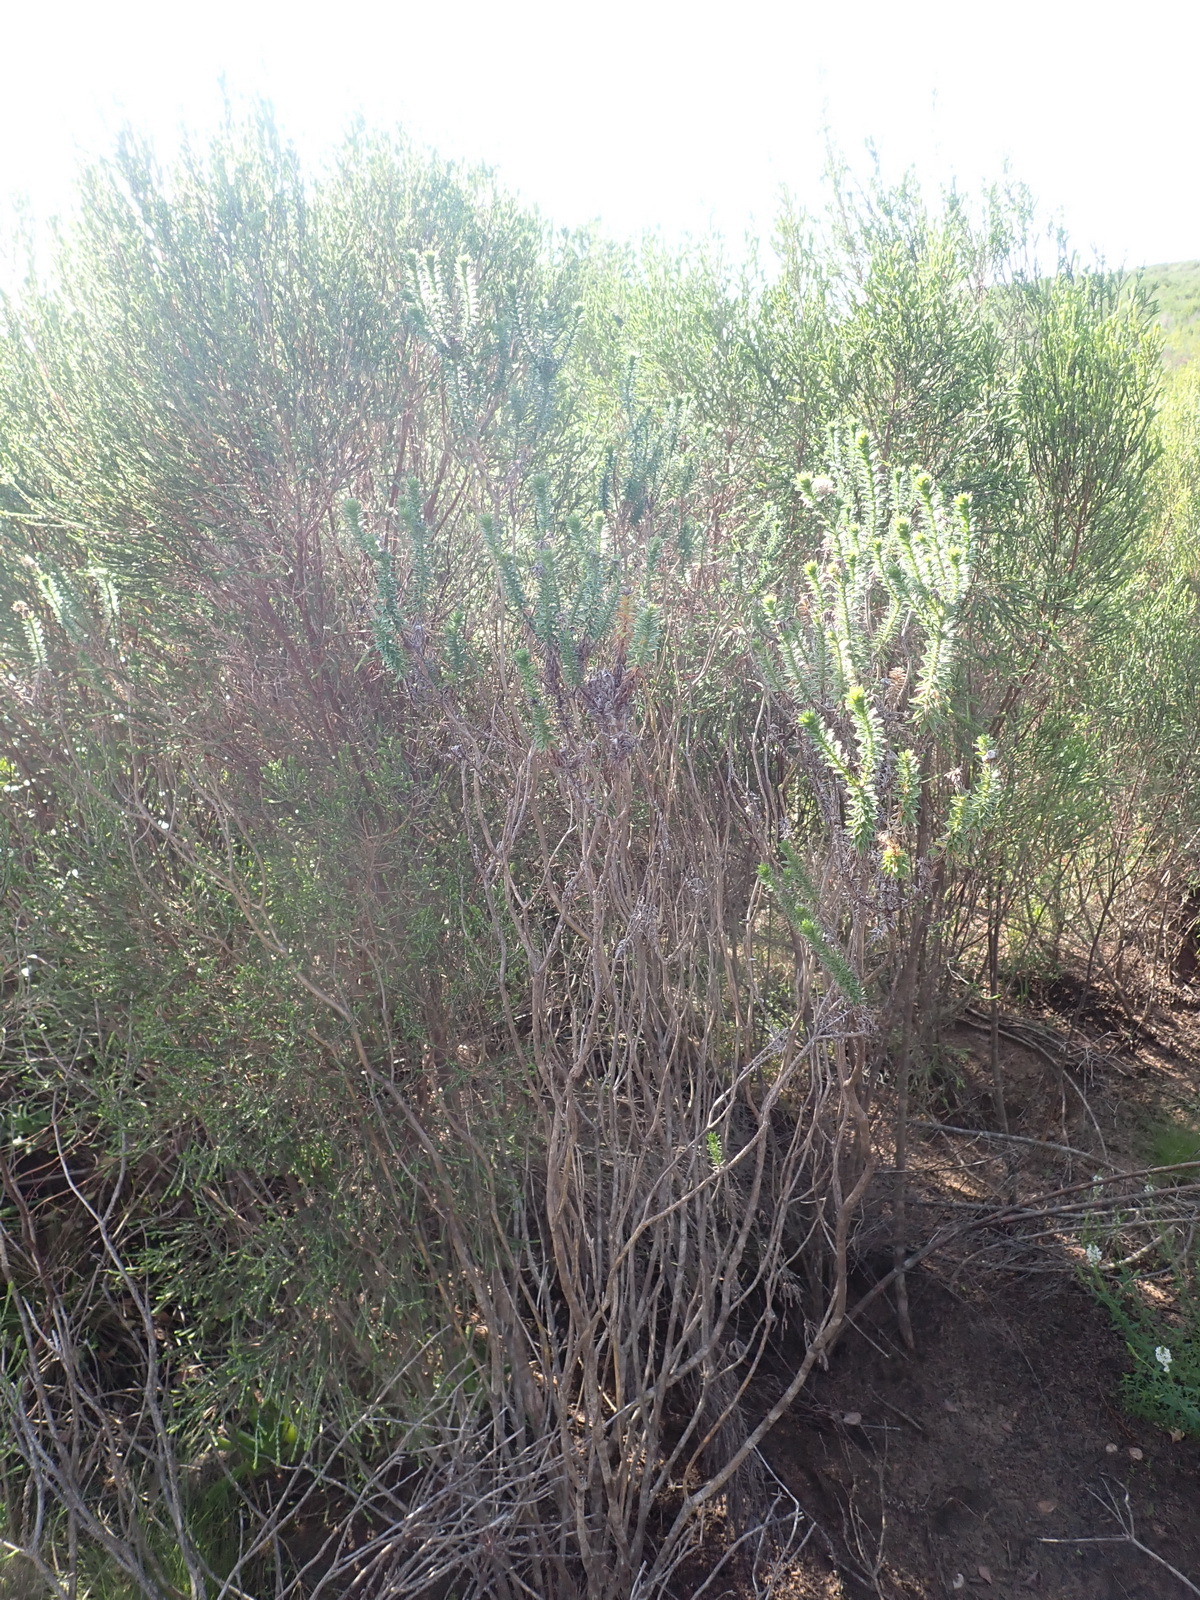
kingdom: Plantae
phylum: Tracheophyta
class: Magnoliopsida
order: Asterales
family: Asteraceae
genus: Felicia
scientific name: Felicia echinata
